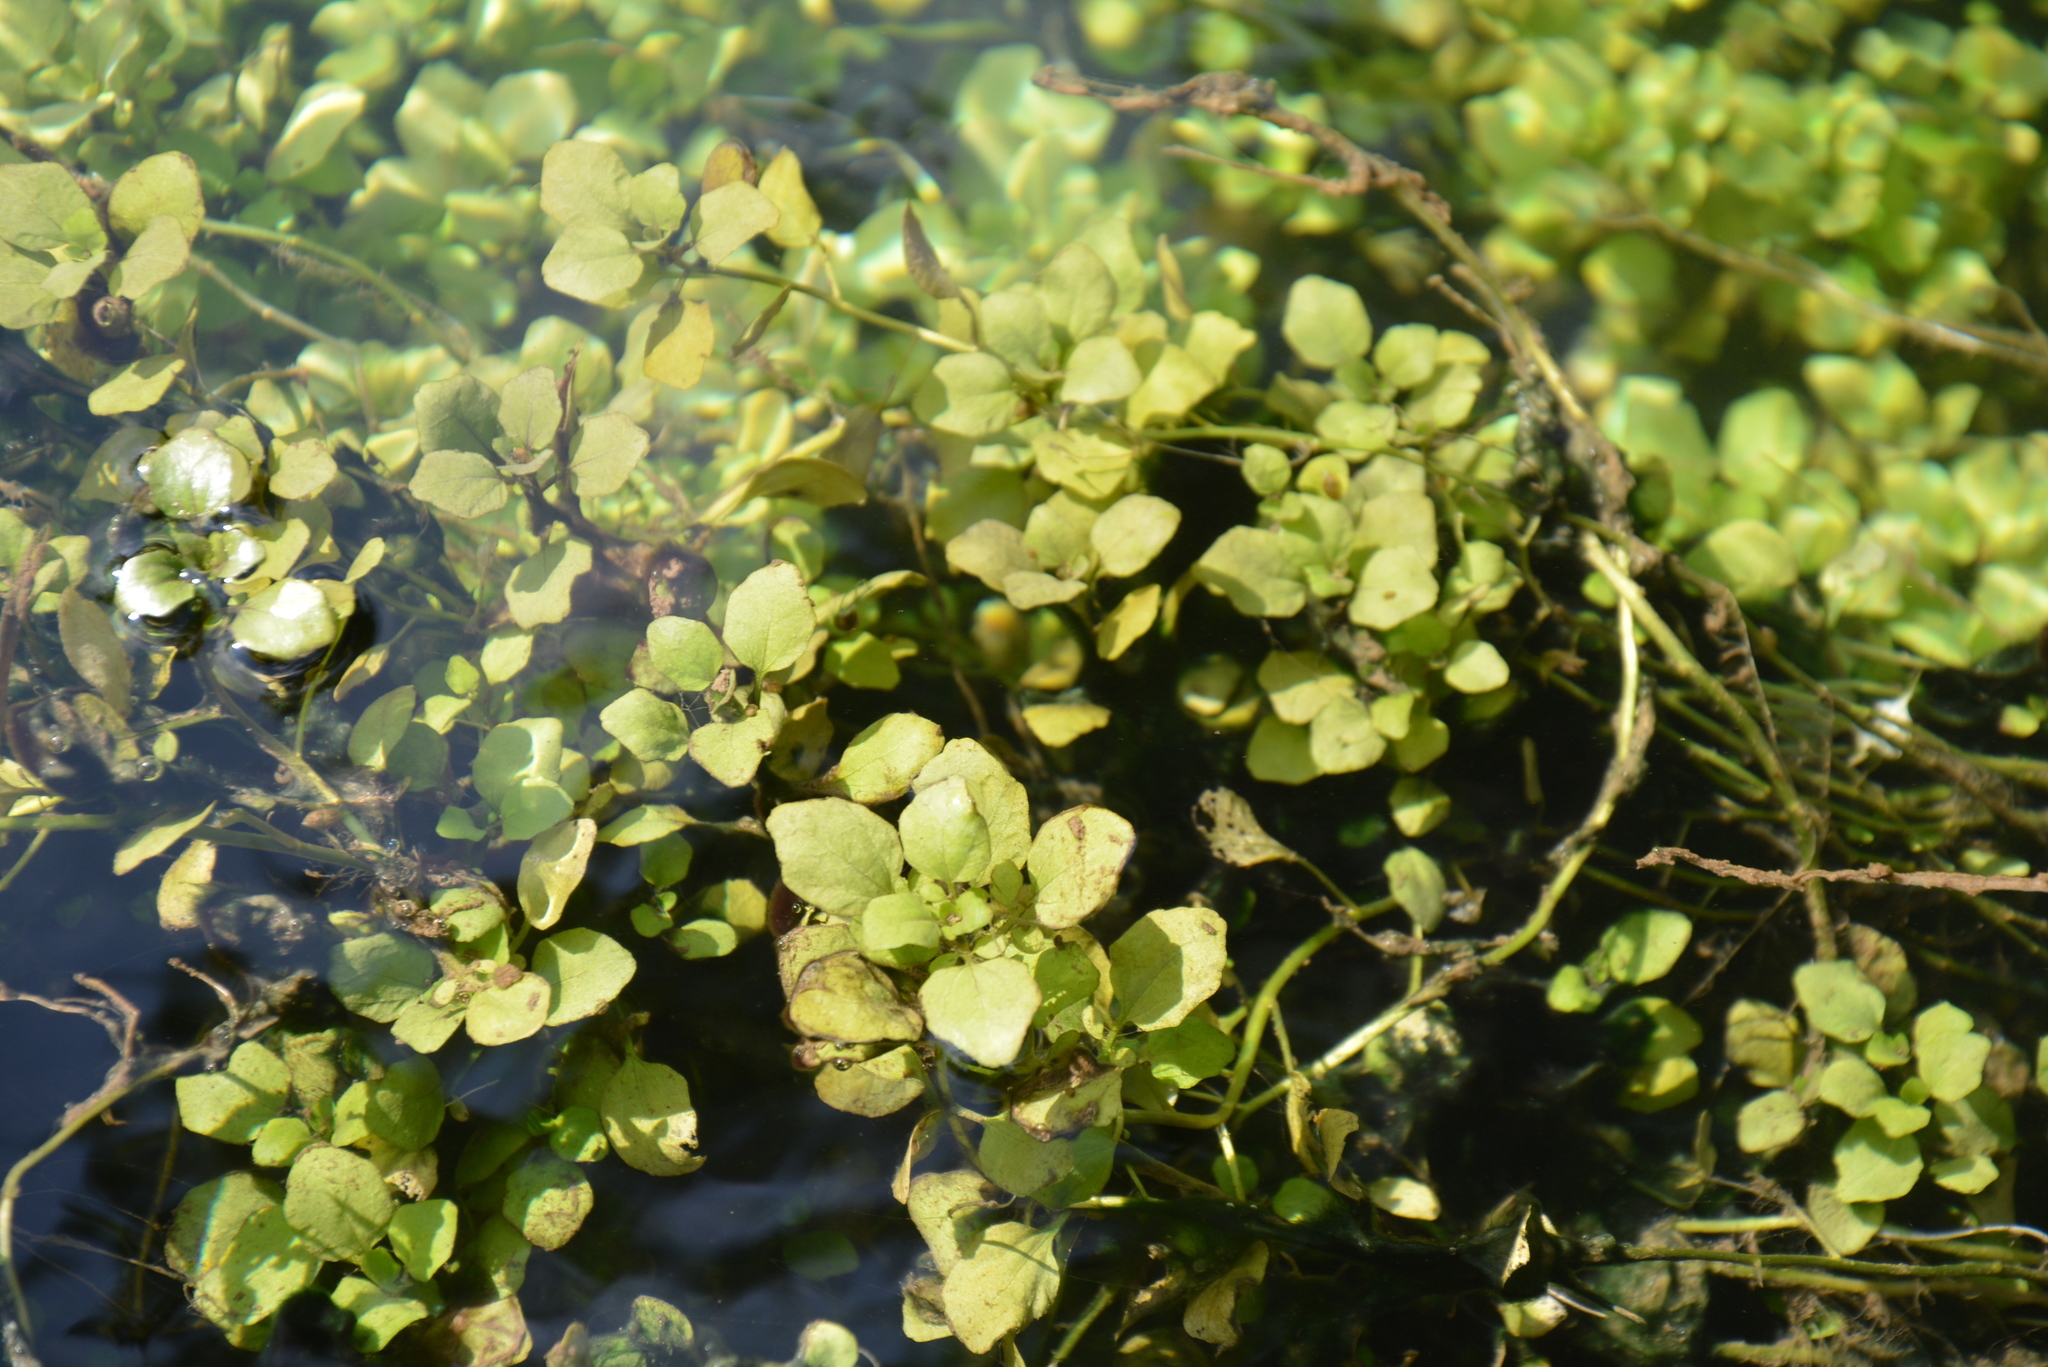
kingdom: Plantae
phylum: Tracheophyta
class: Magnoliopsida
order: Brassicales
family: Brassicaceae
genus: Nasturtium
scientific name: Nasturtium officinale
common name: Watercress
